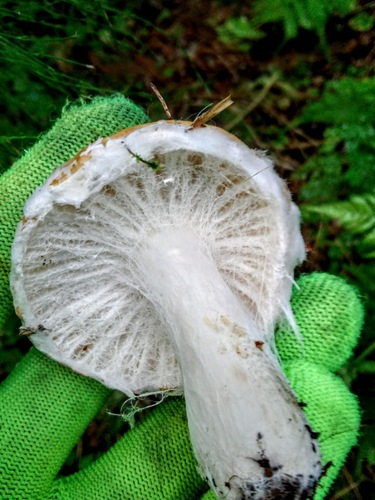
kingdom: Fungi
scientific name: Fungi
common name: Fungi
